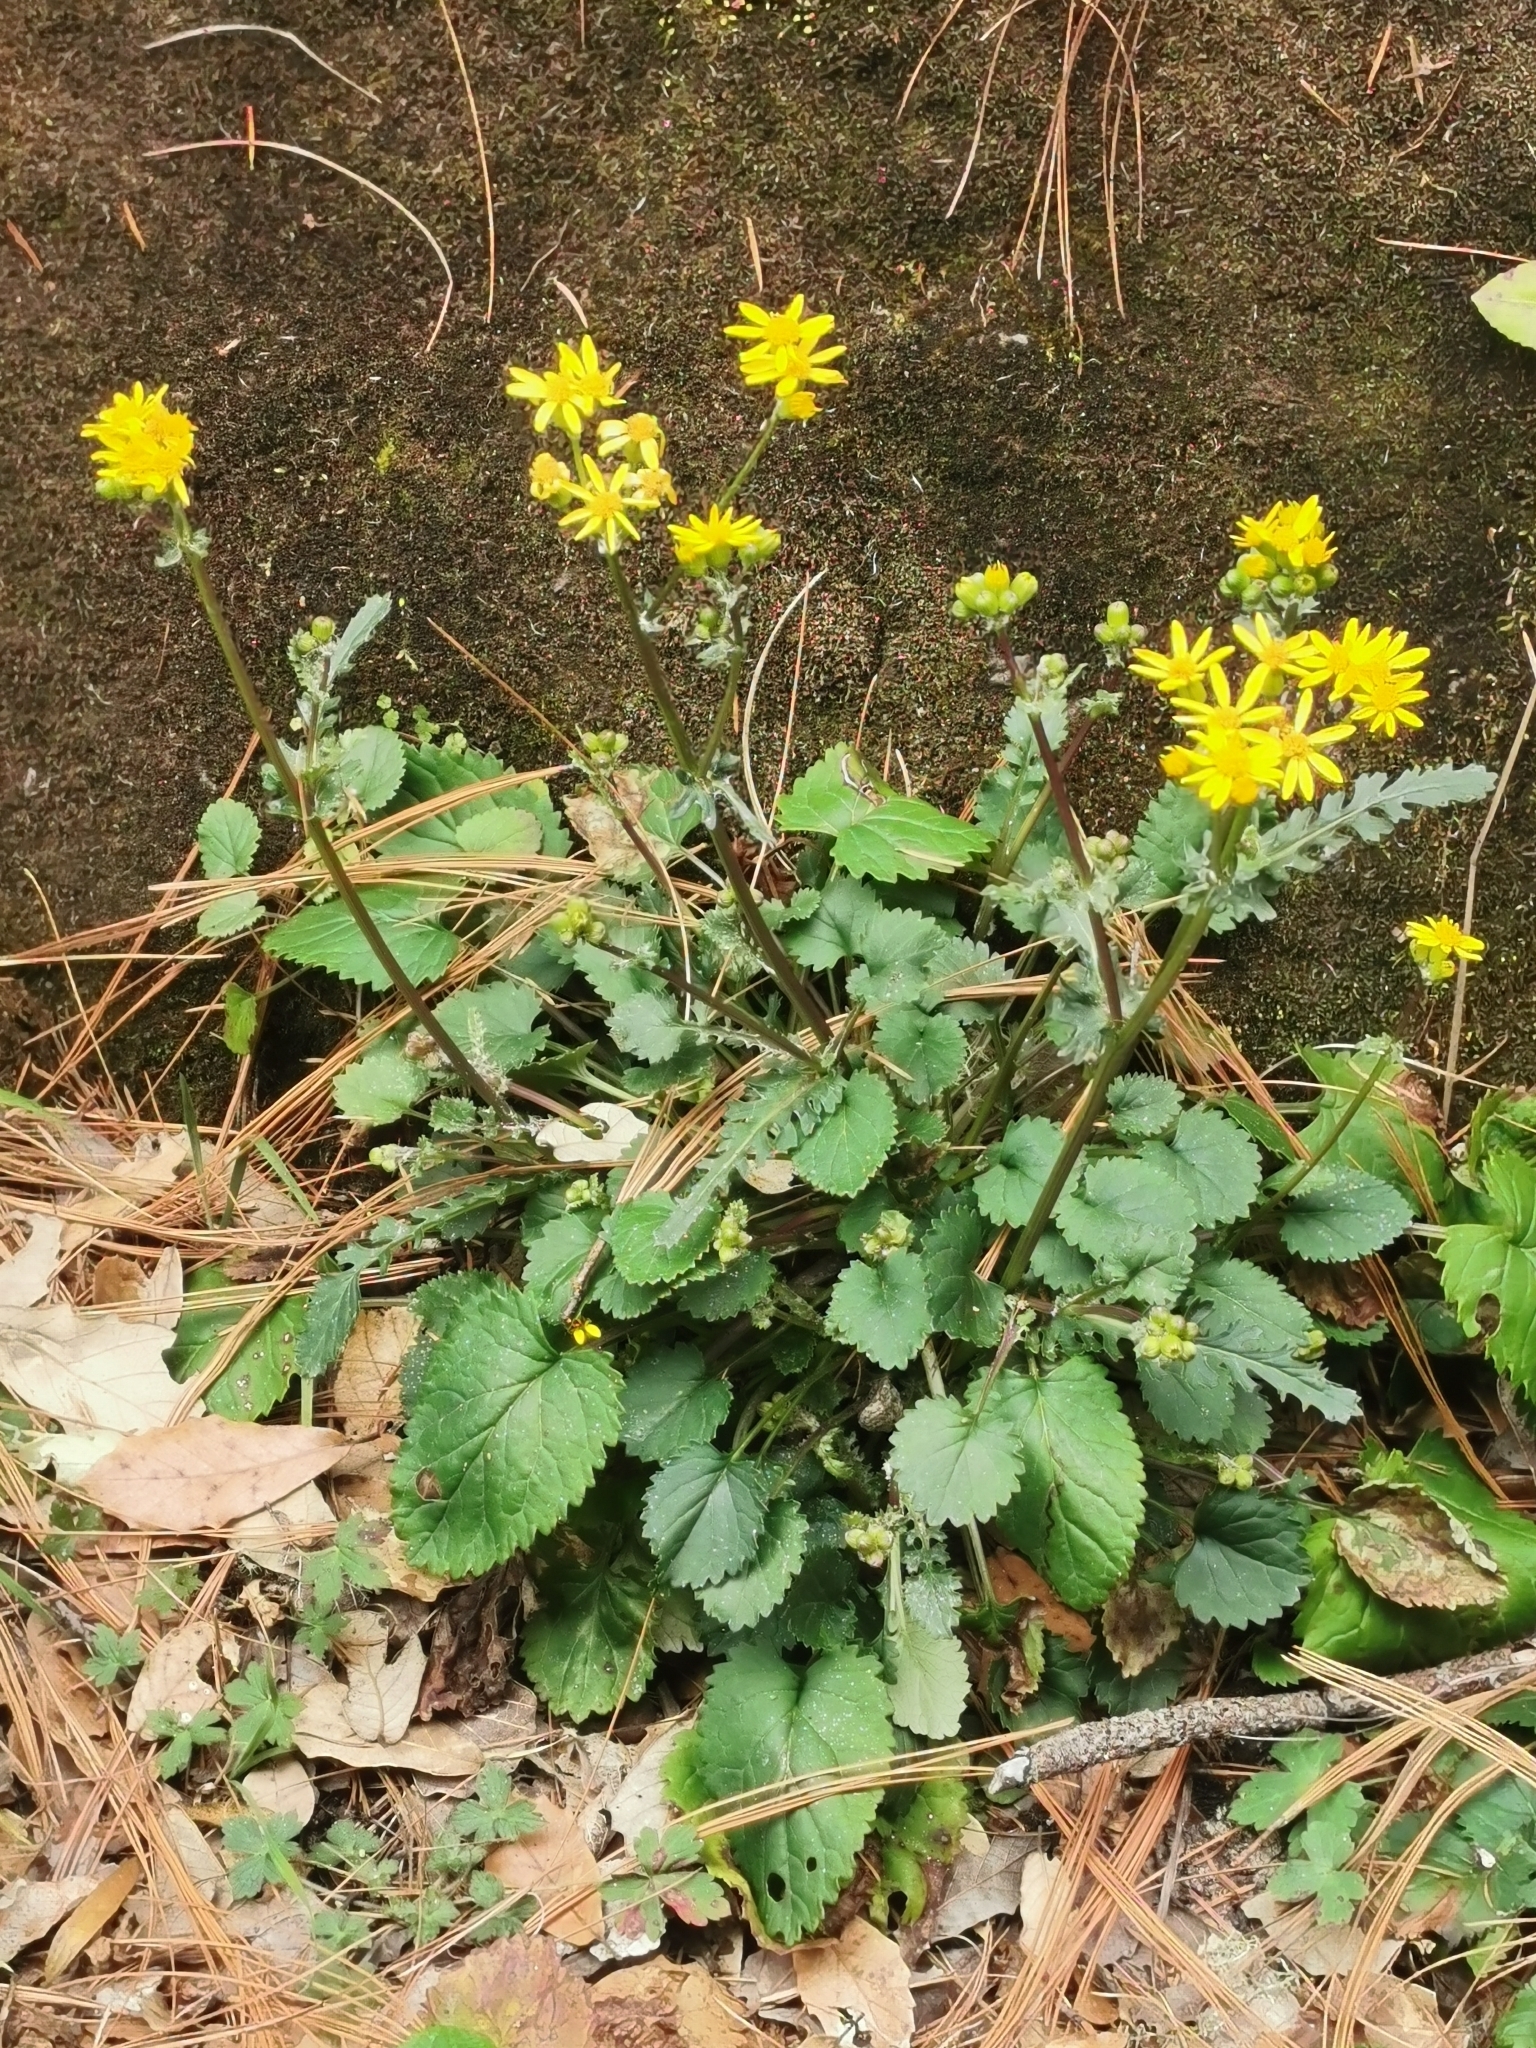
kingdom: Plantae
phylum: Tracheophyta
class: Magnoliopsida
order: Asterales
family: Asteraceae
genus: Packera
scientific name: Packera quebradensis
